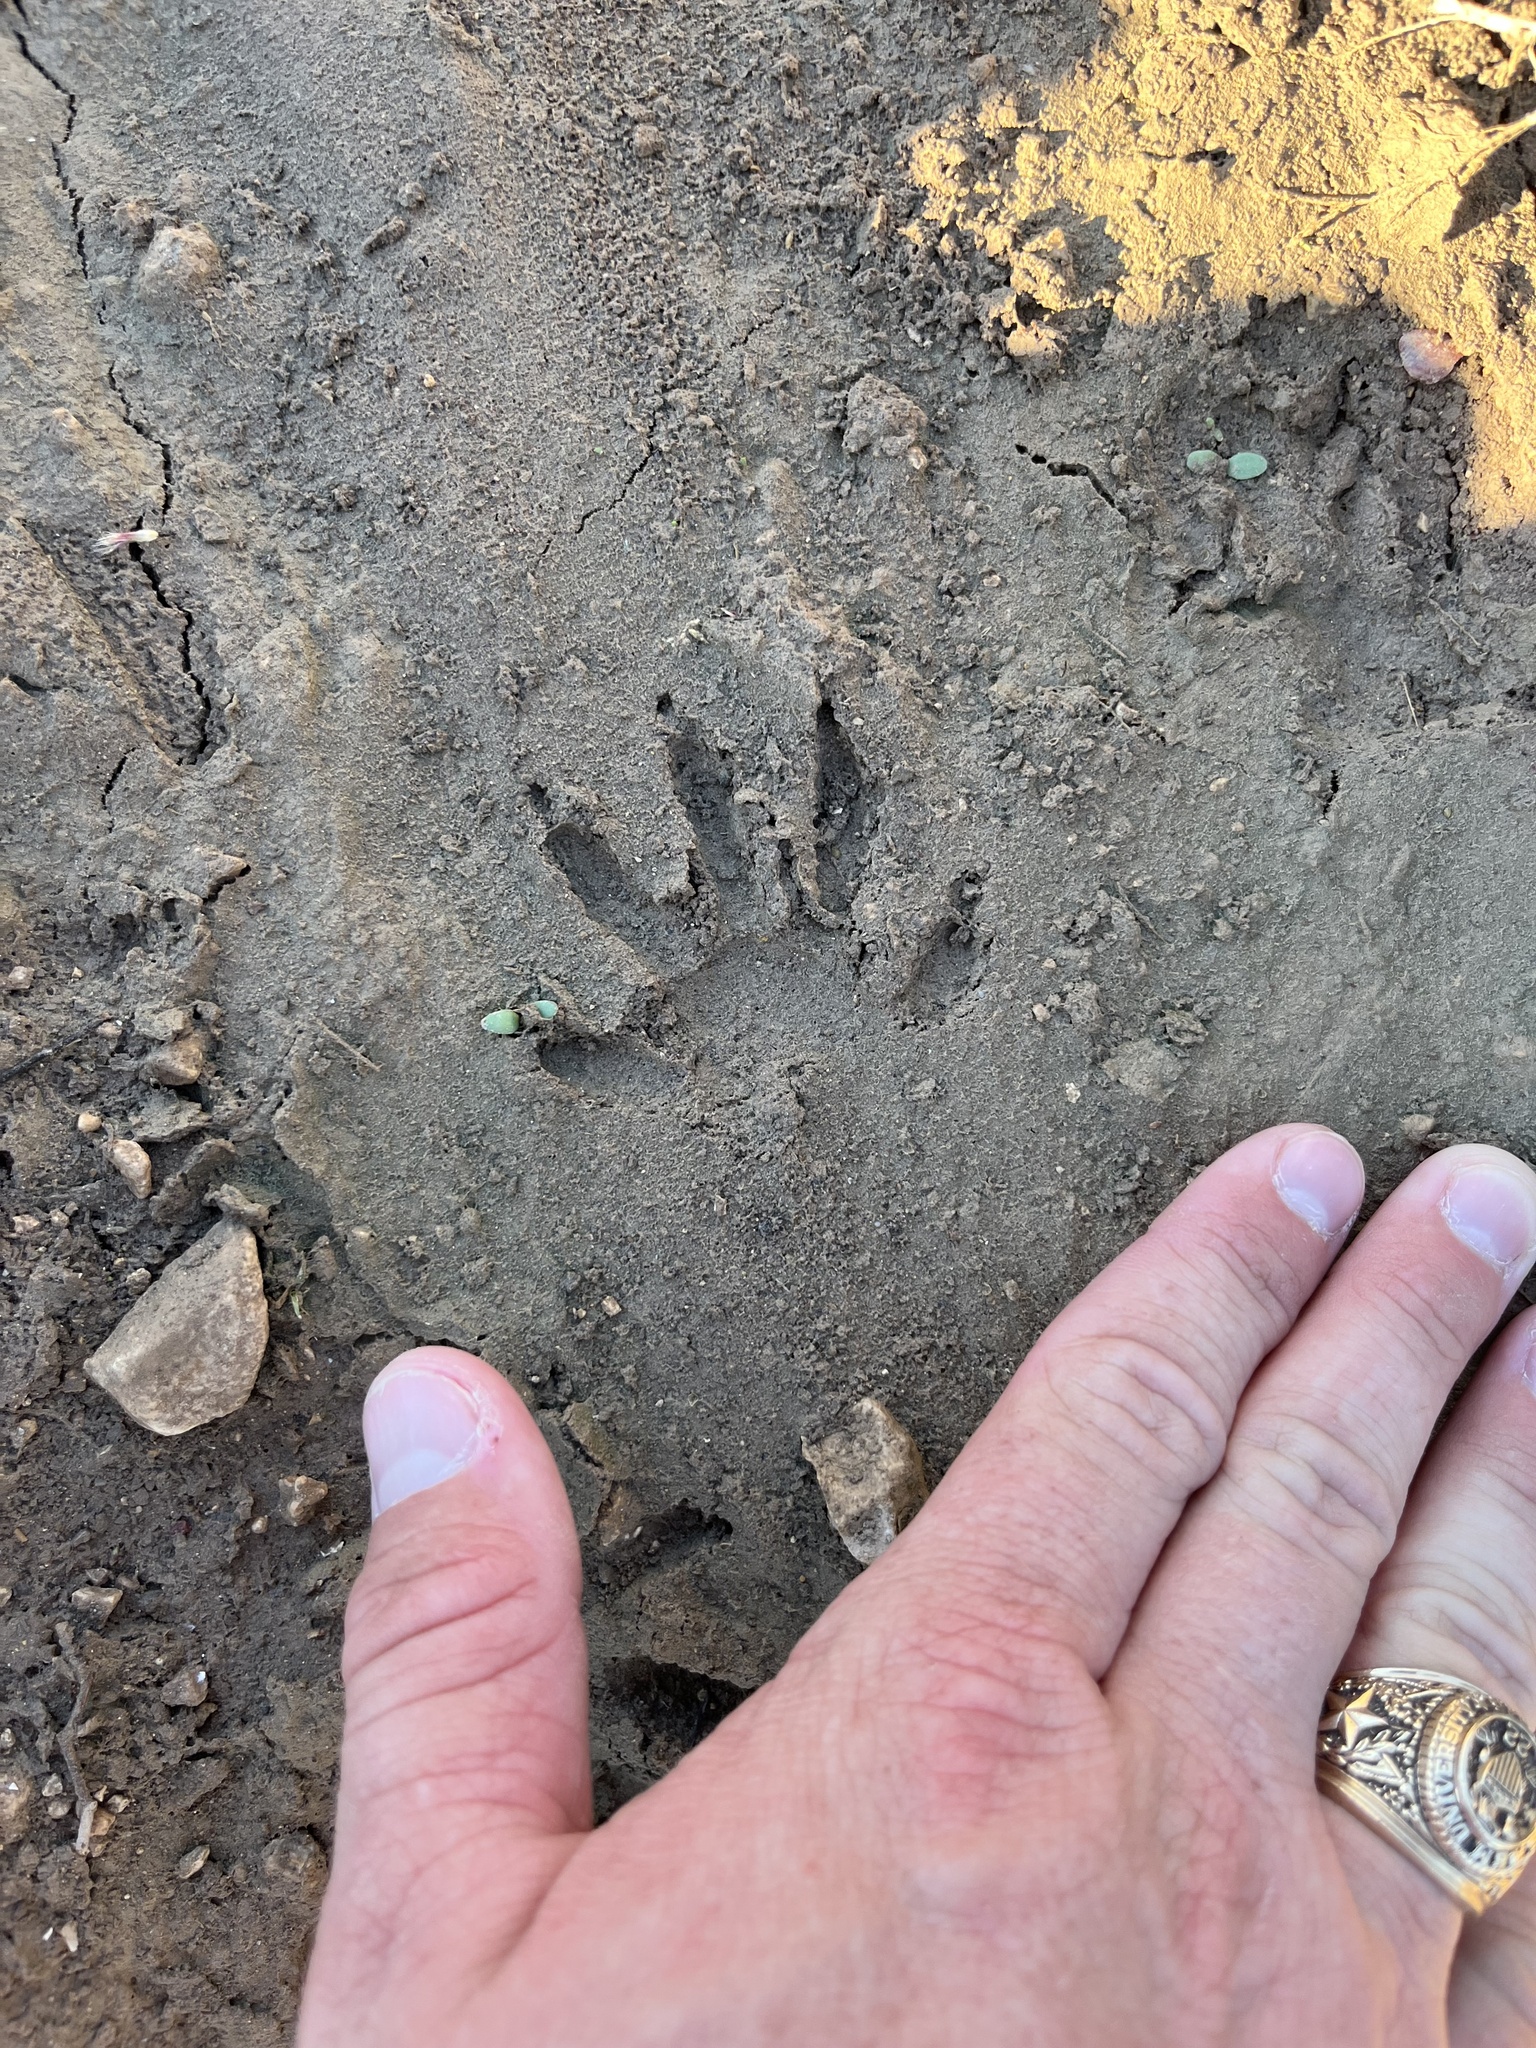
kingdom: Animalia
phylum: Chordata
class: Mammalia
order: Carnivora
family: Procyonidae
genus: Procyon
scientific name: Procyon lotor
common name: Raccoon
